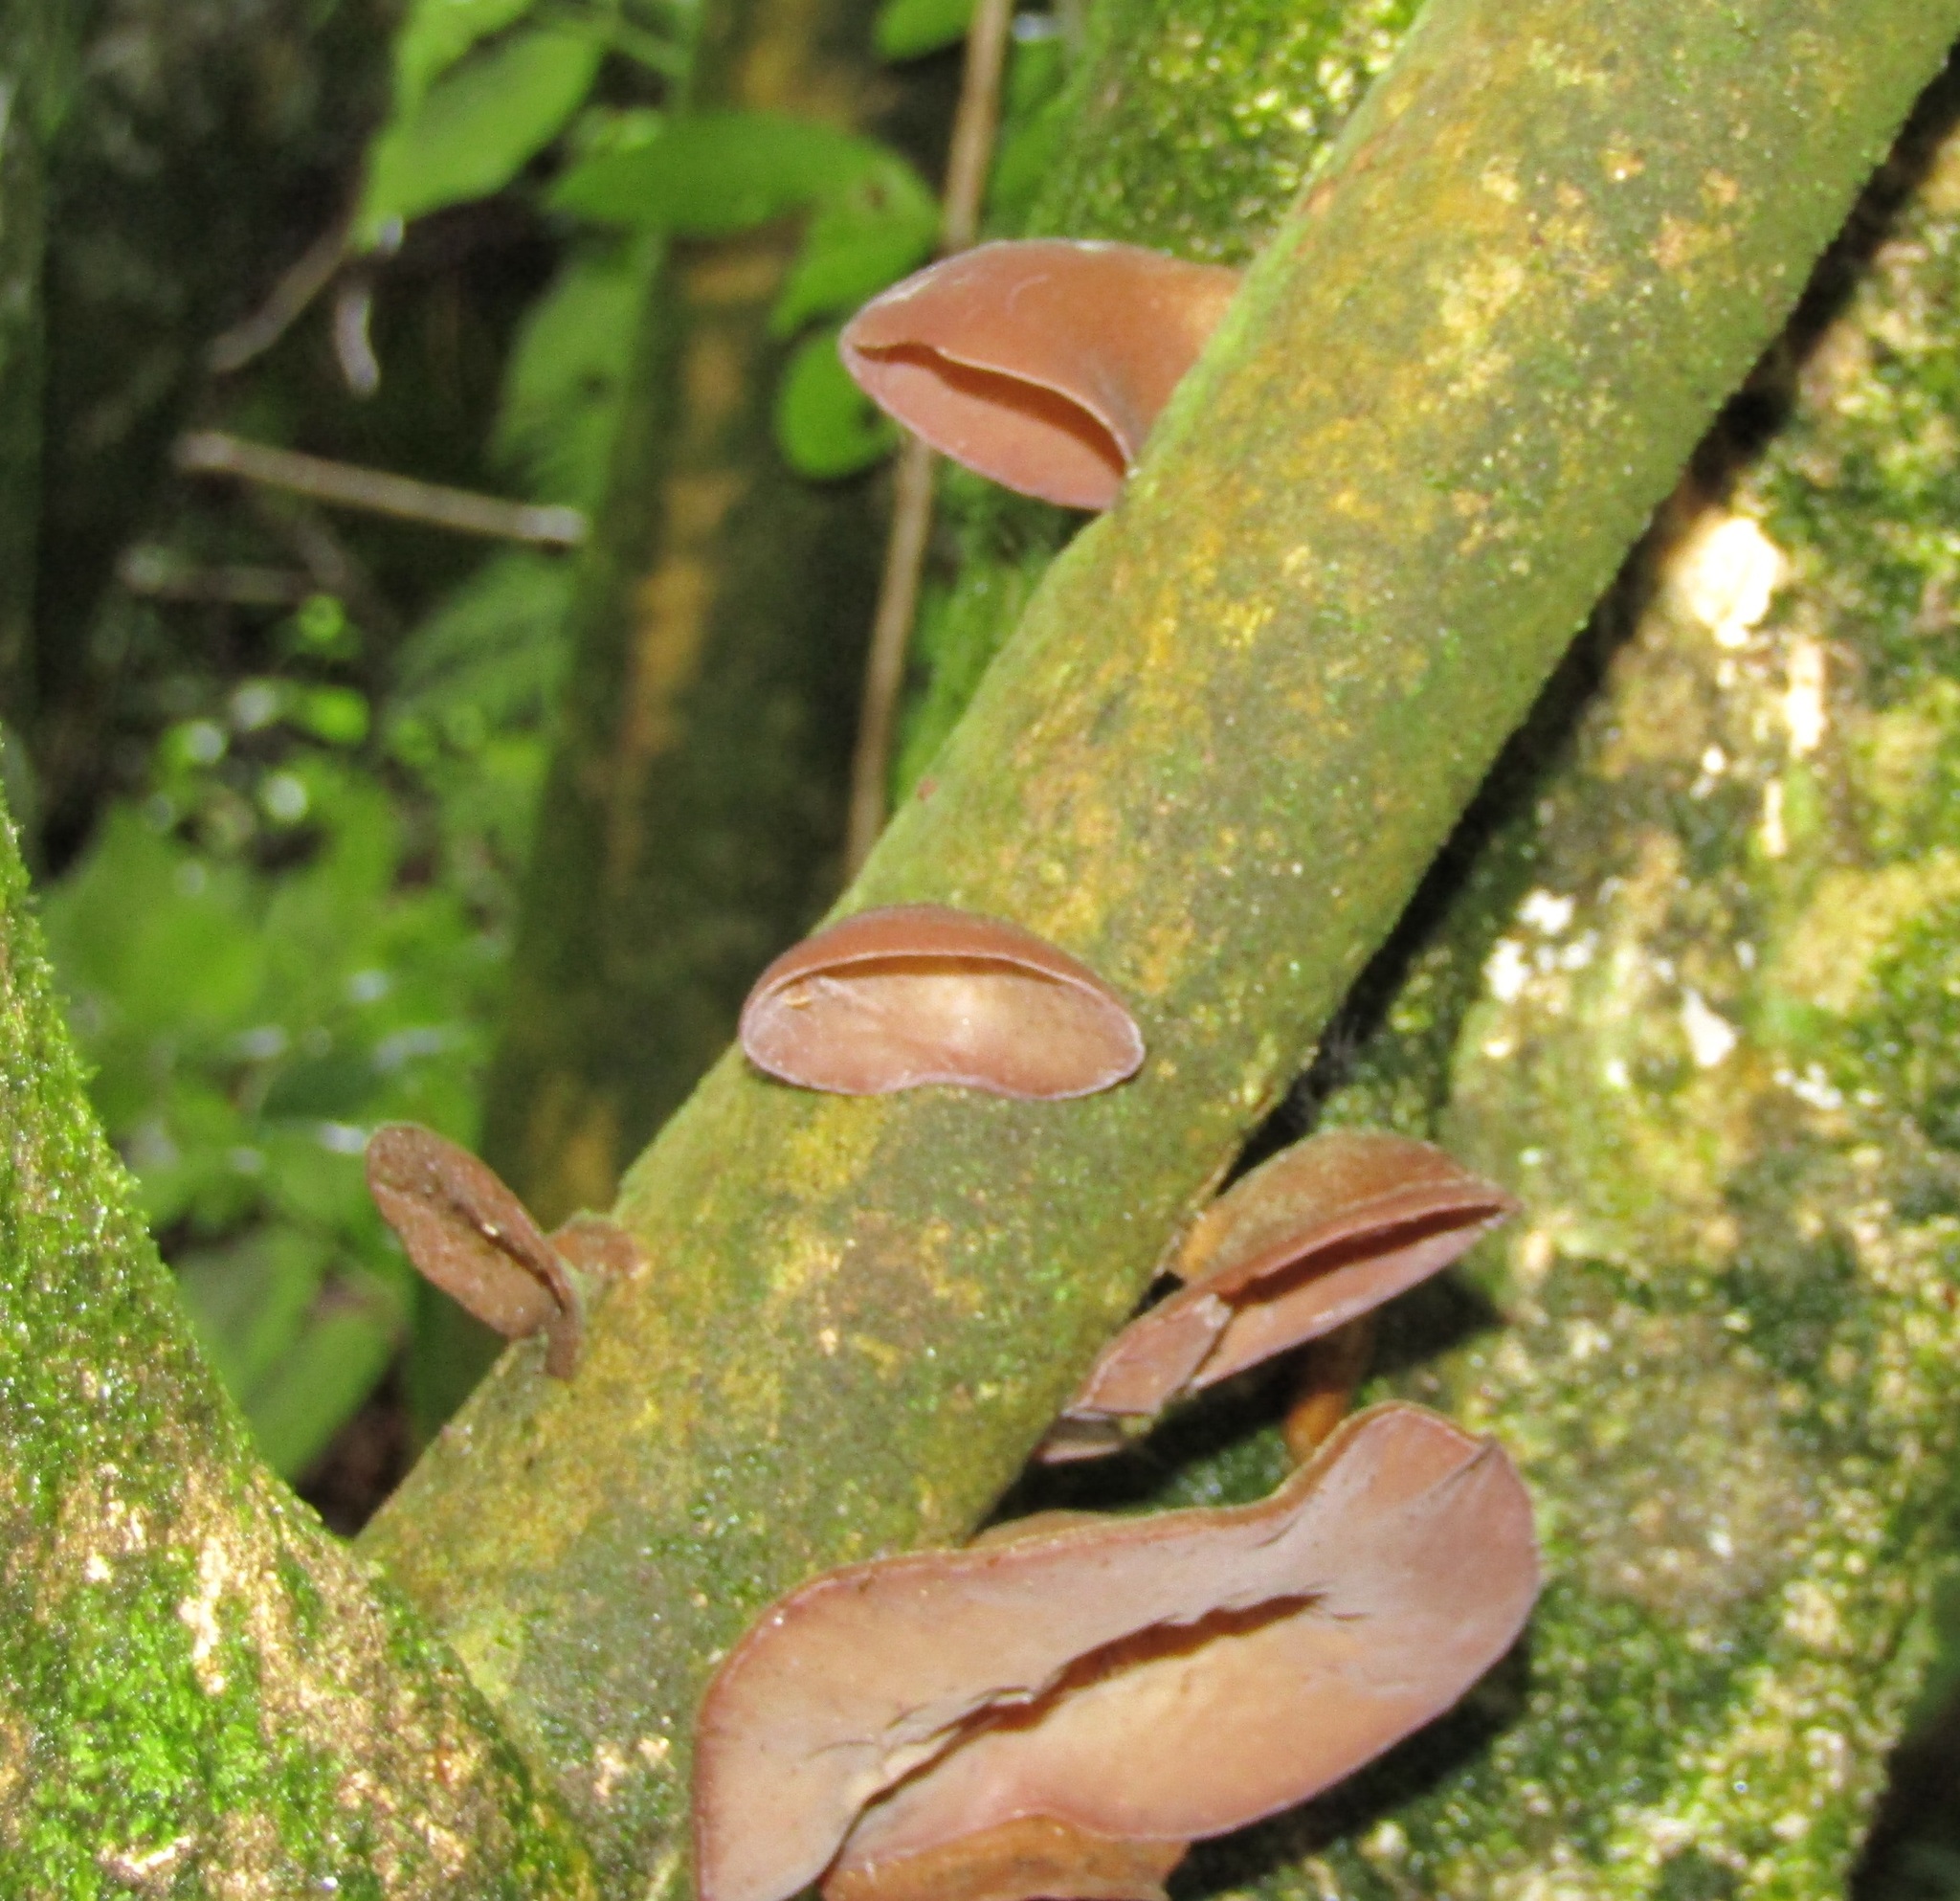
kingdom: Fungi
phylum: Basidiomycota
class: Agaricomycetes
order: Auriculariales
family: Auriculariaceae
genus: Auricularia
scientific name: Auricularia cornea
